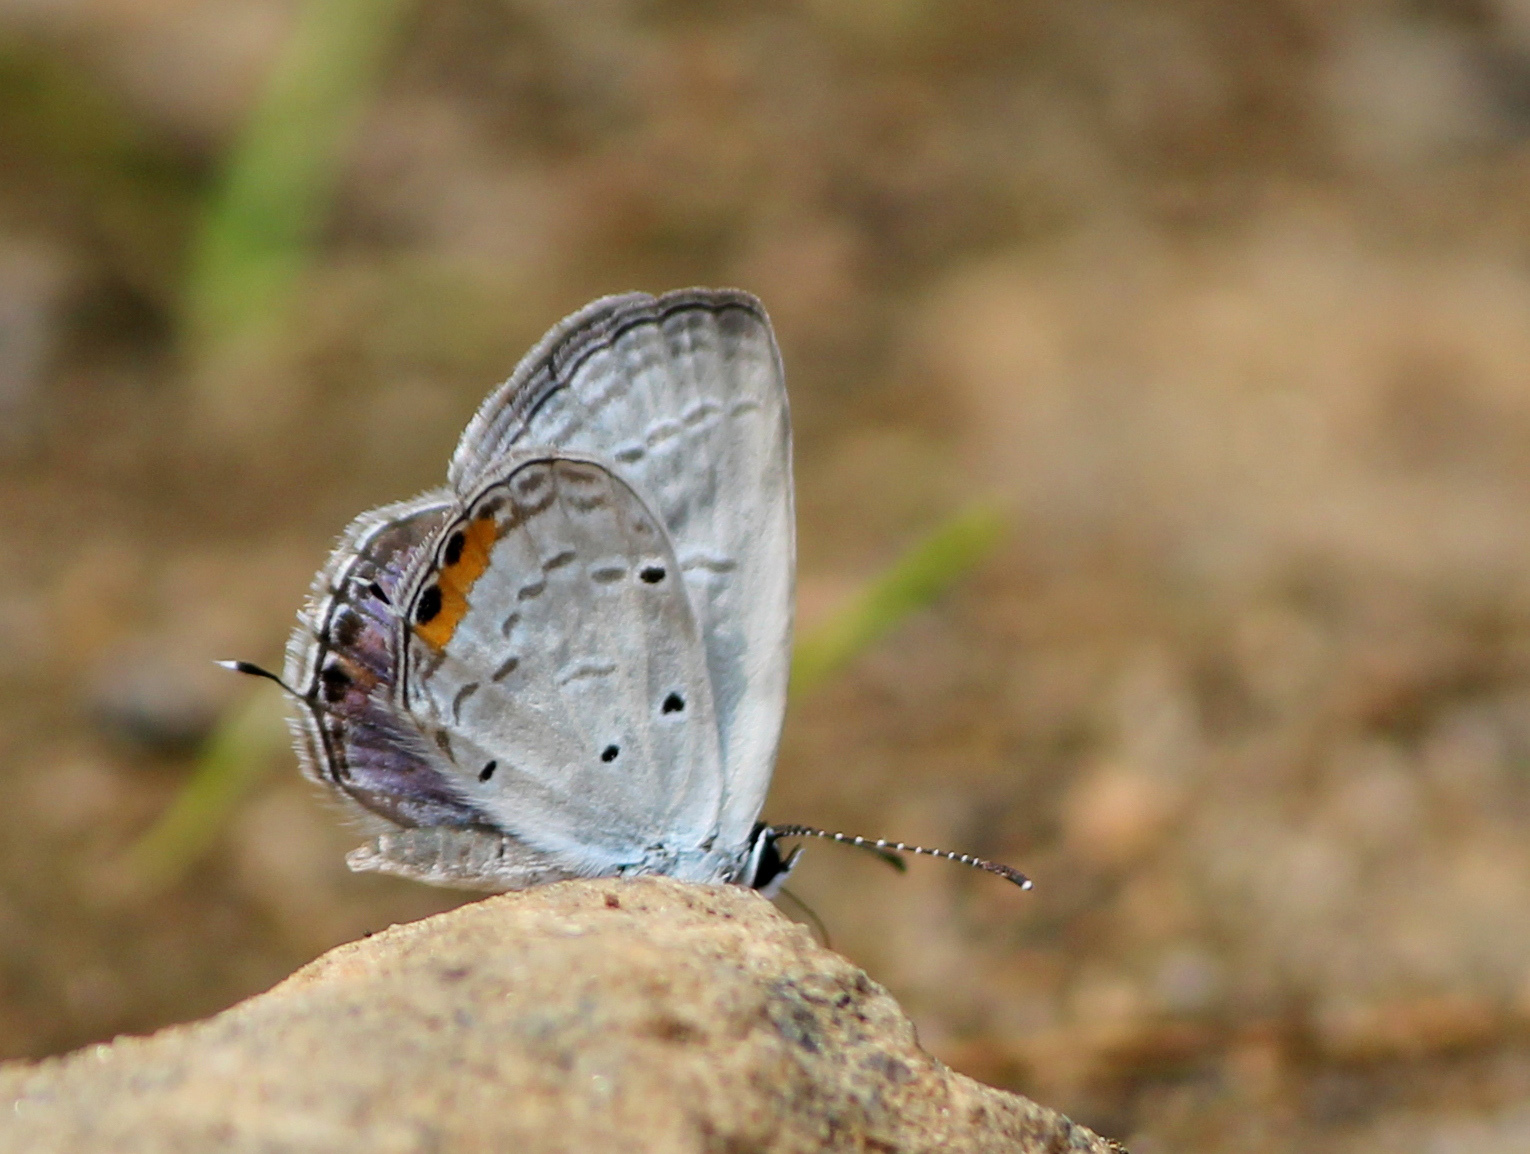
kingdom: Animalia
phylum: Arthropoda
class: Insecta
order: Lepidoptera
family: Lycaenidae
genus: Everes
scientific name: Everes lacturnus
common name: Orange-tipped pea-blue
